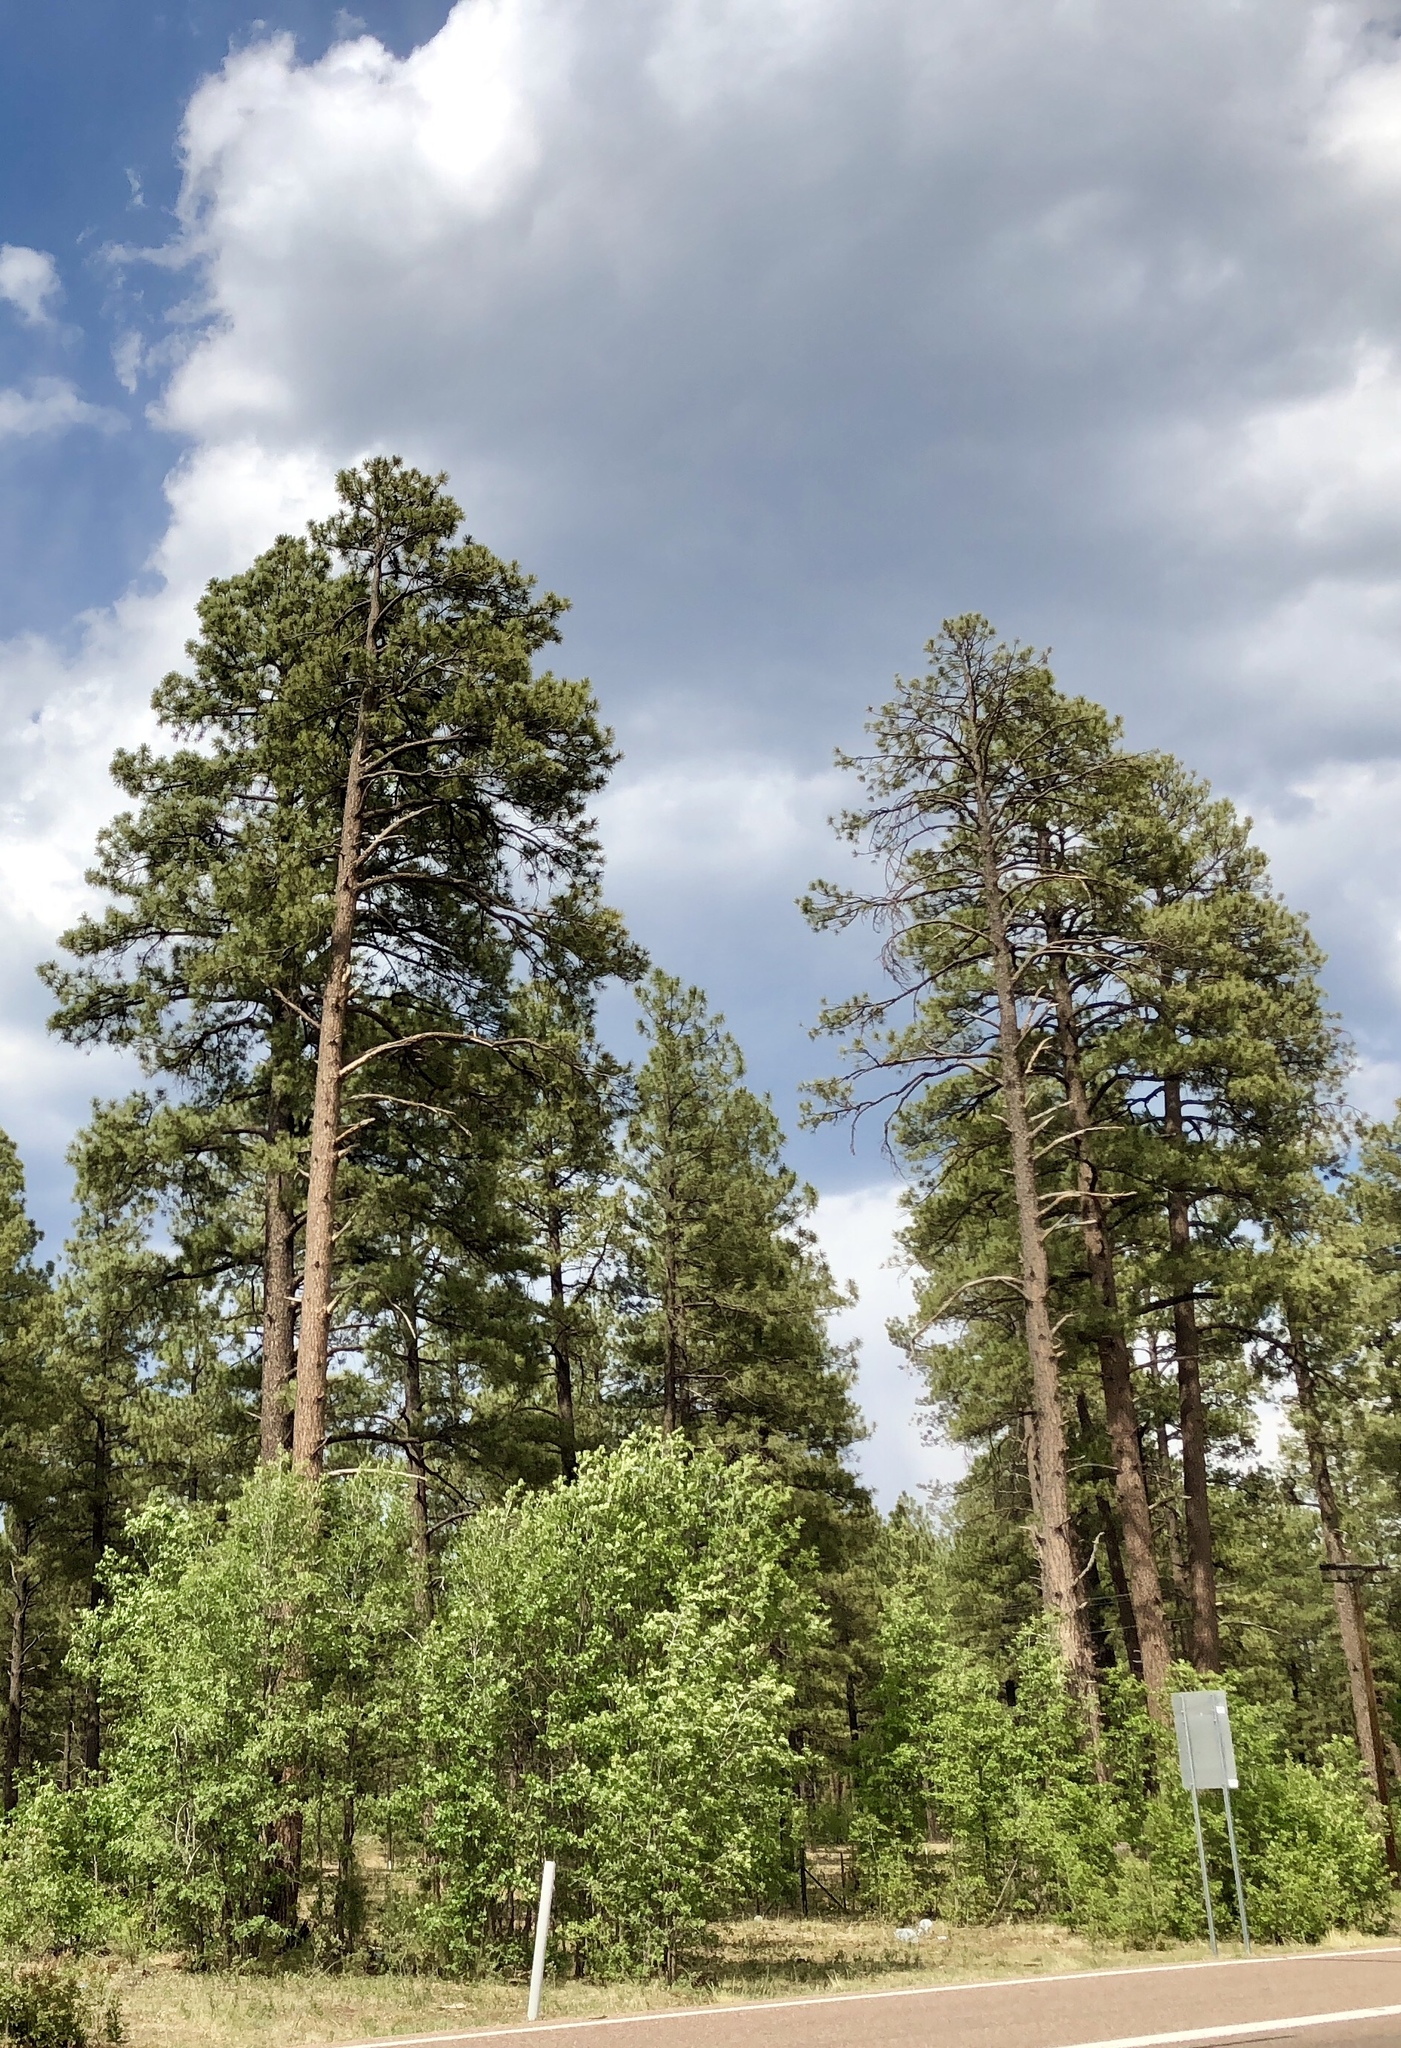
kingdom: Plantae
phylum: Tracheophyta
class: Pinopsida
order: Pinales
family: Pinaceae
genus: Pinus
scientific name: Pinus ponderosa
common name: Western yellow-pine
